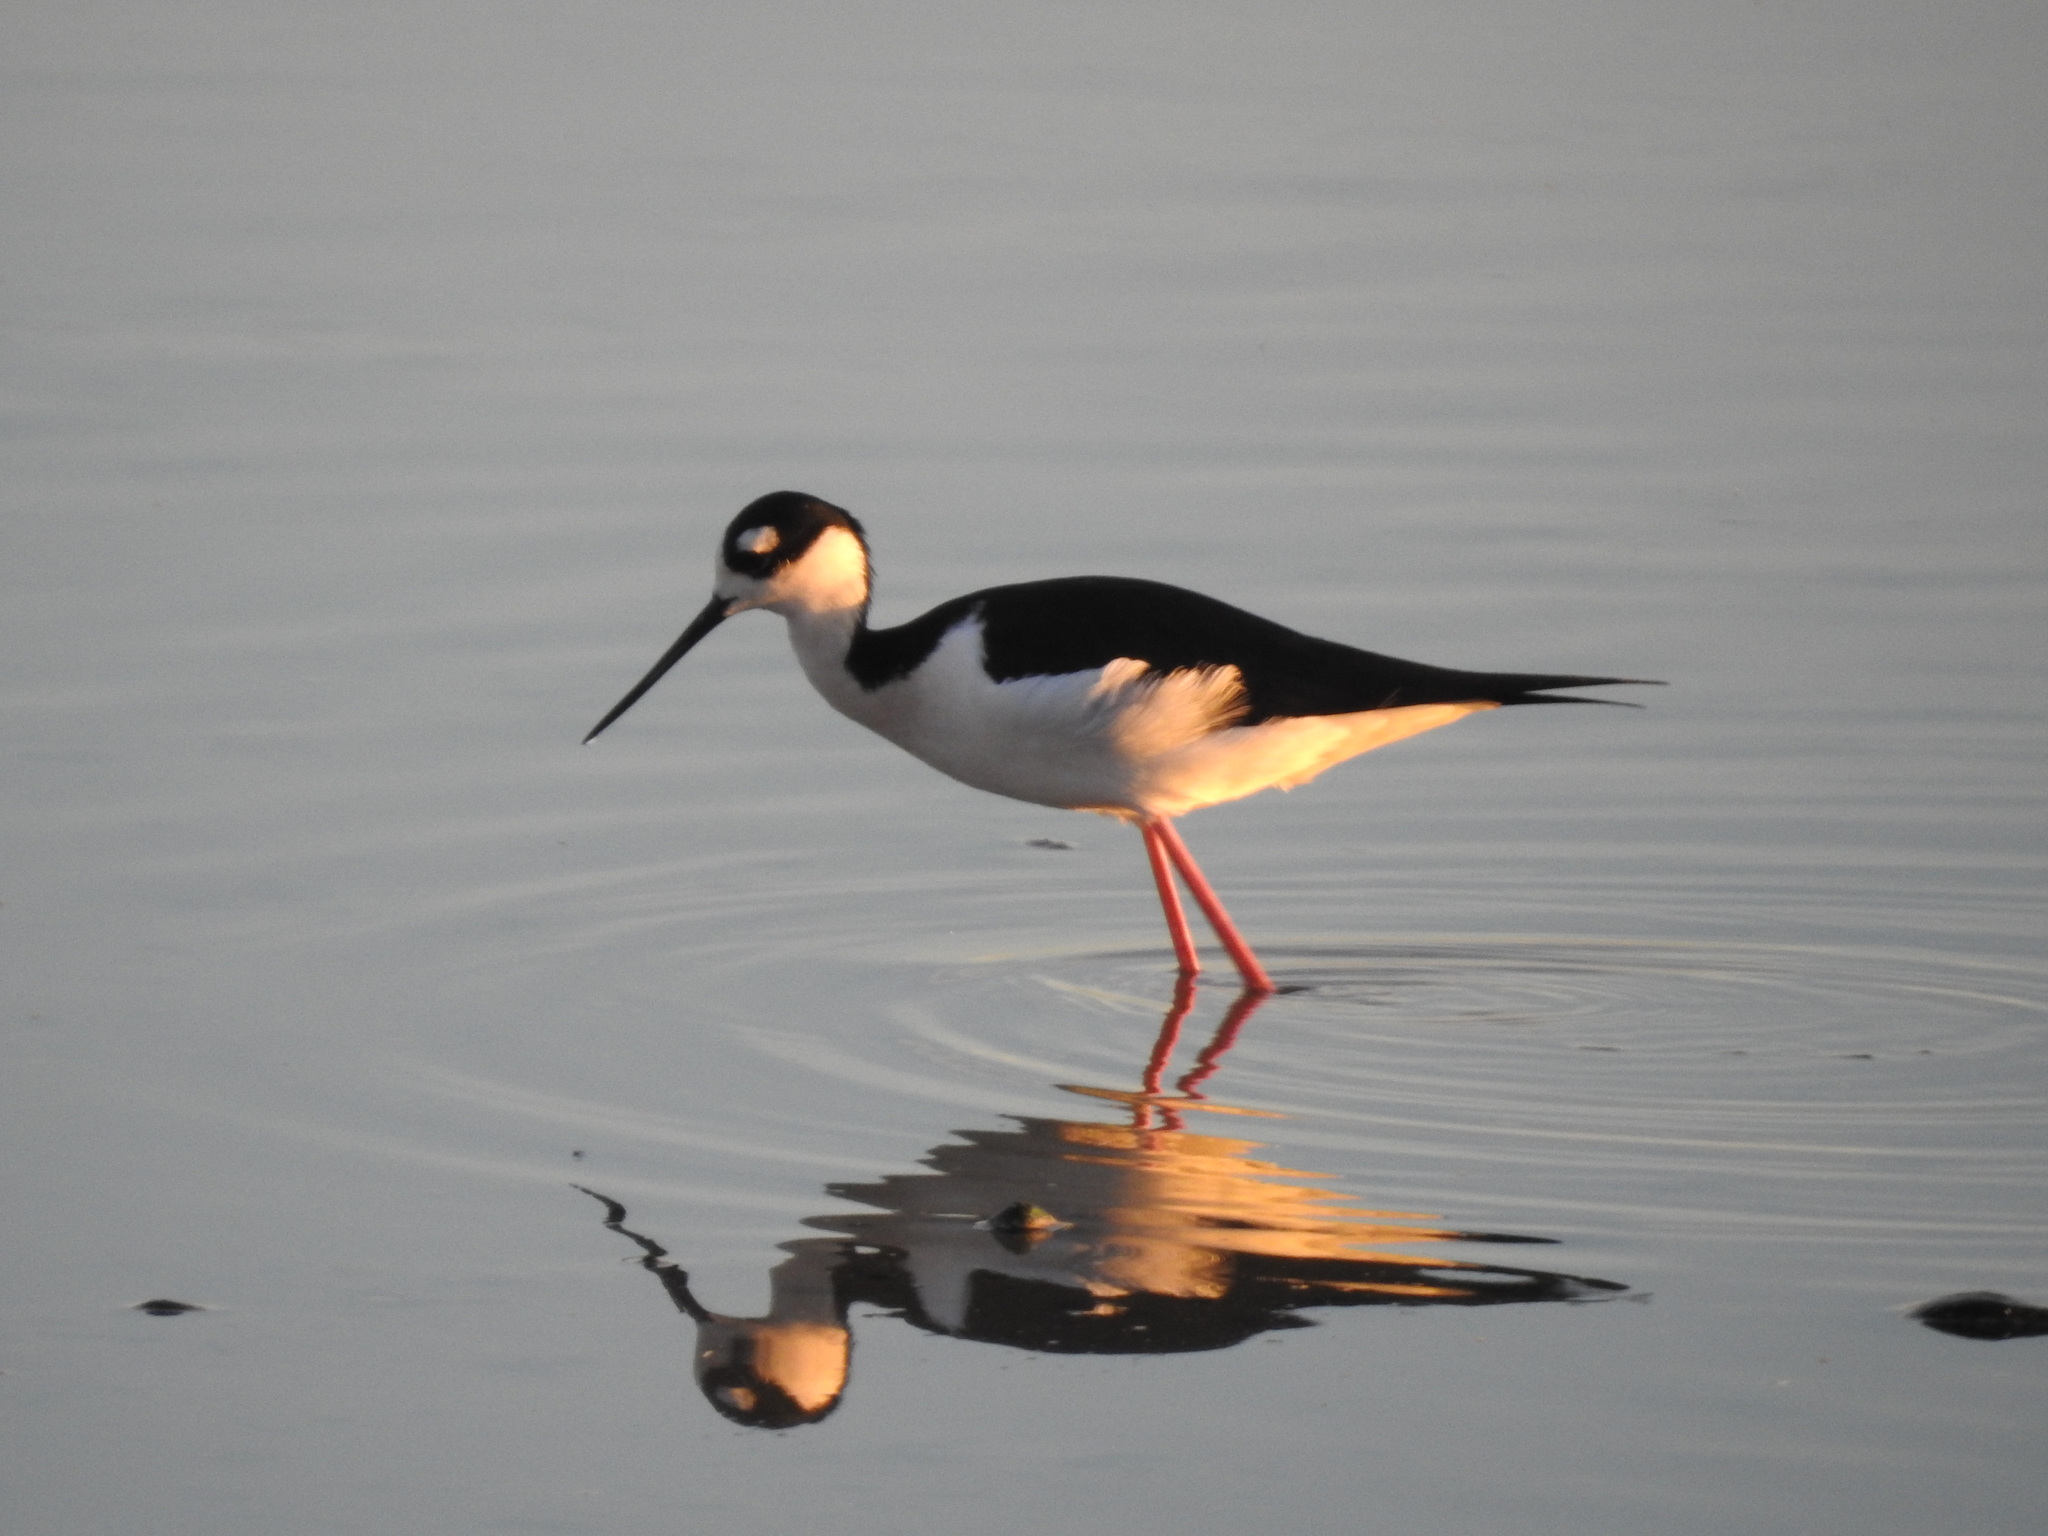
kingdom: Animalia
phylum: Chordata
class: Aves
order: Charadriiformes
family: Recurvirostridae
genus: Himantopus
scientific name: Himantopus mexicanus
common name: Black-necked stilt
